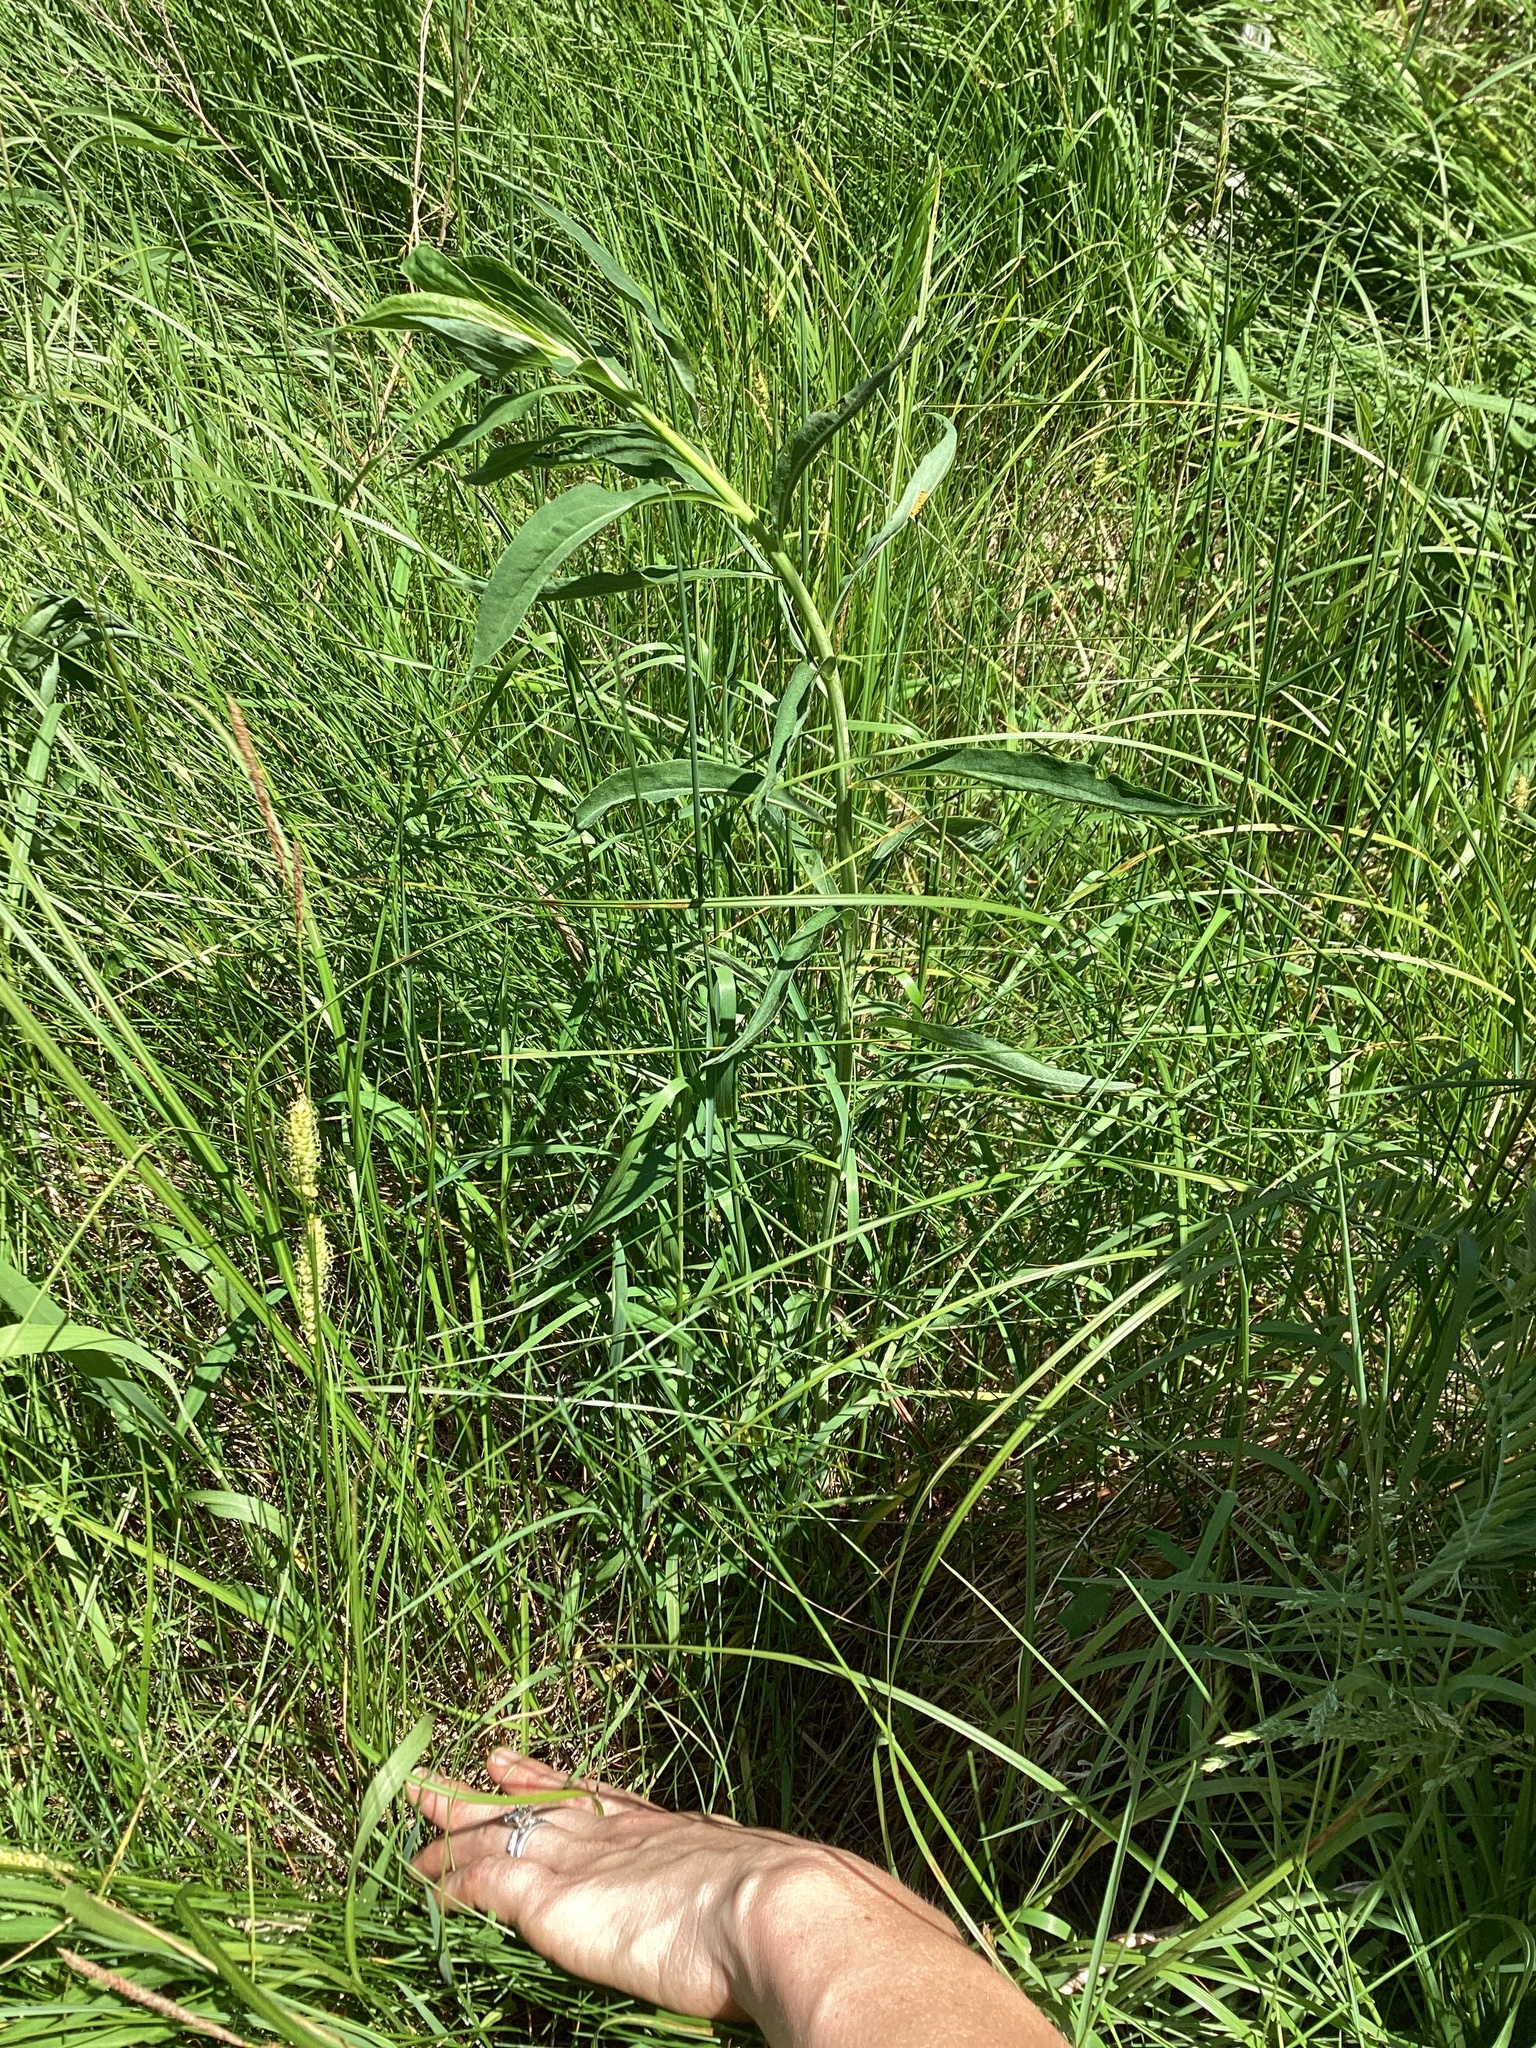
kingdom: Plantae
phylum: Tracheophyta
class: Liliopsida
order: Poales
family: Cyperaceae
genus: Carex
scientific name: Carex pellita
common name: Woolly sedge
